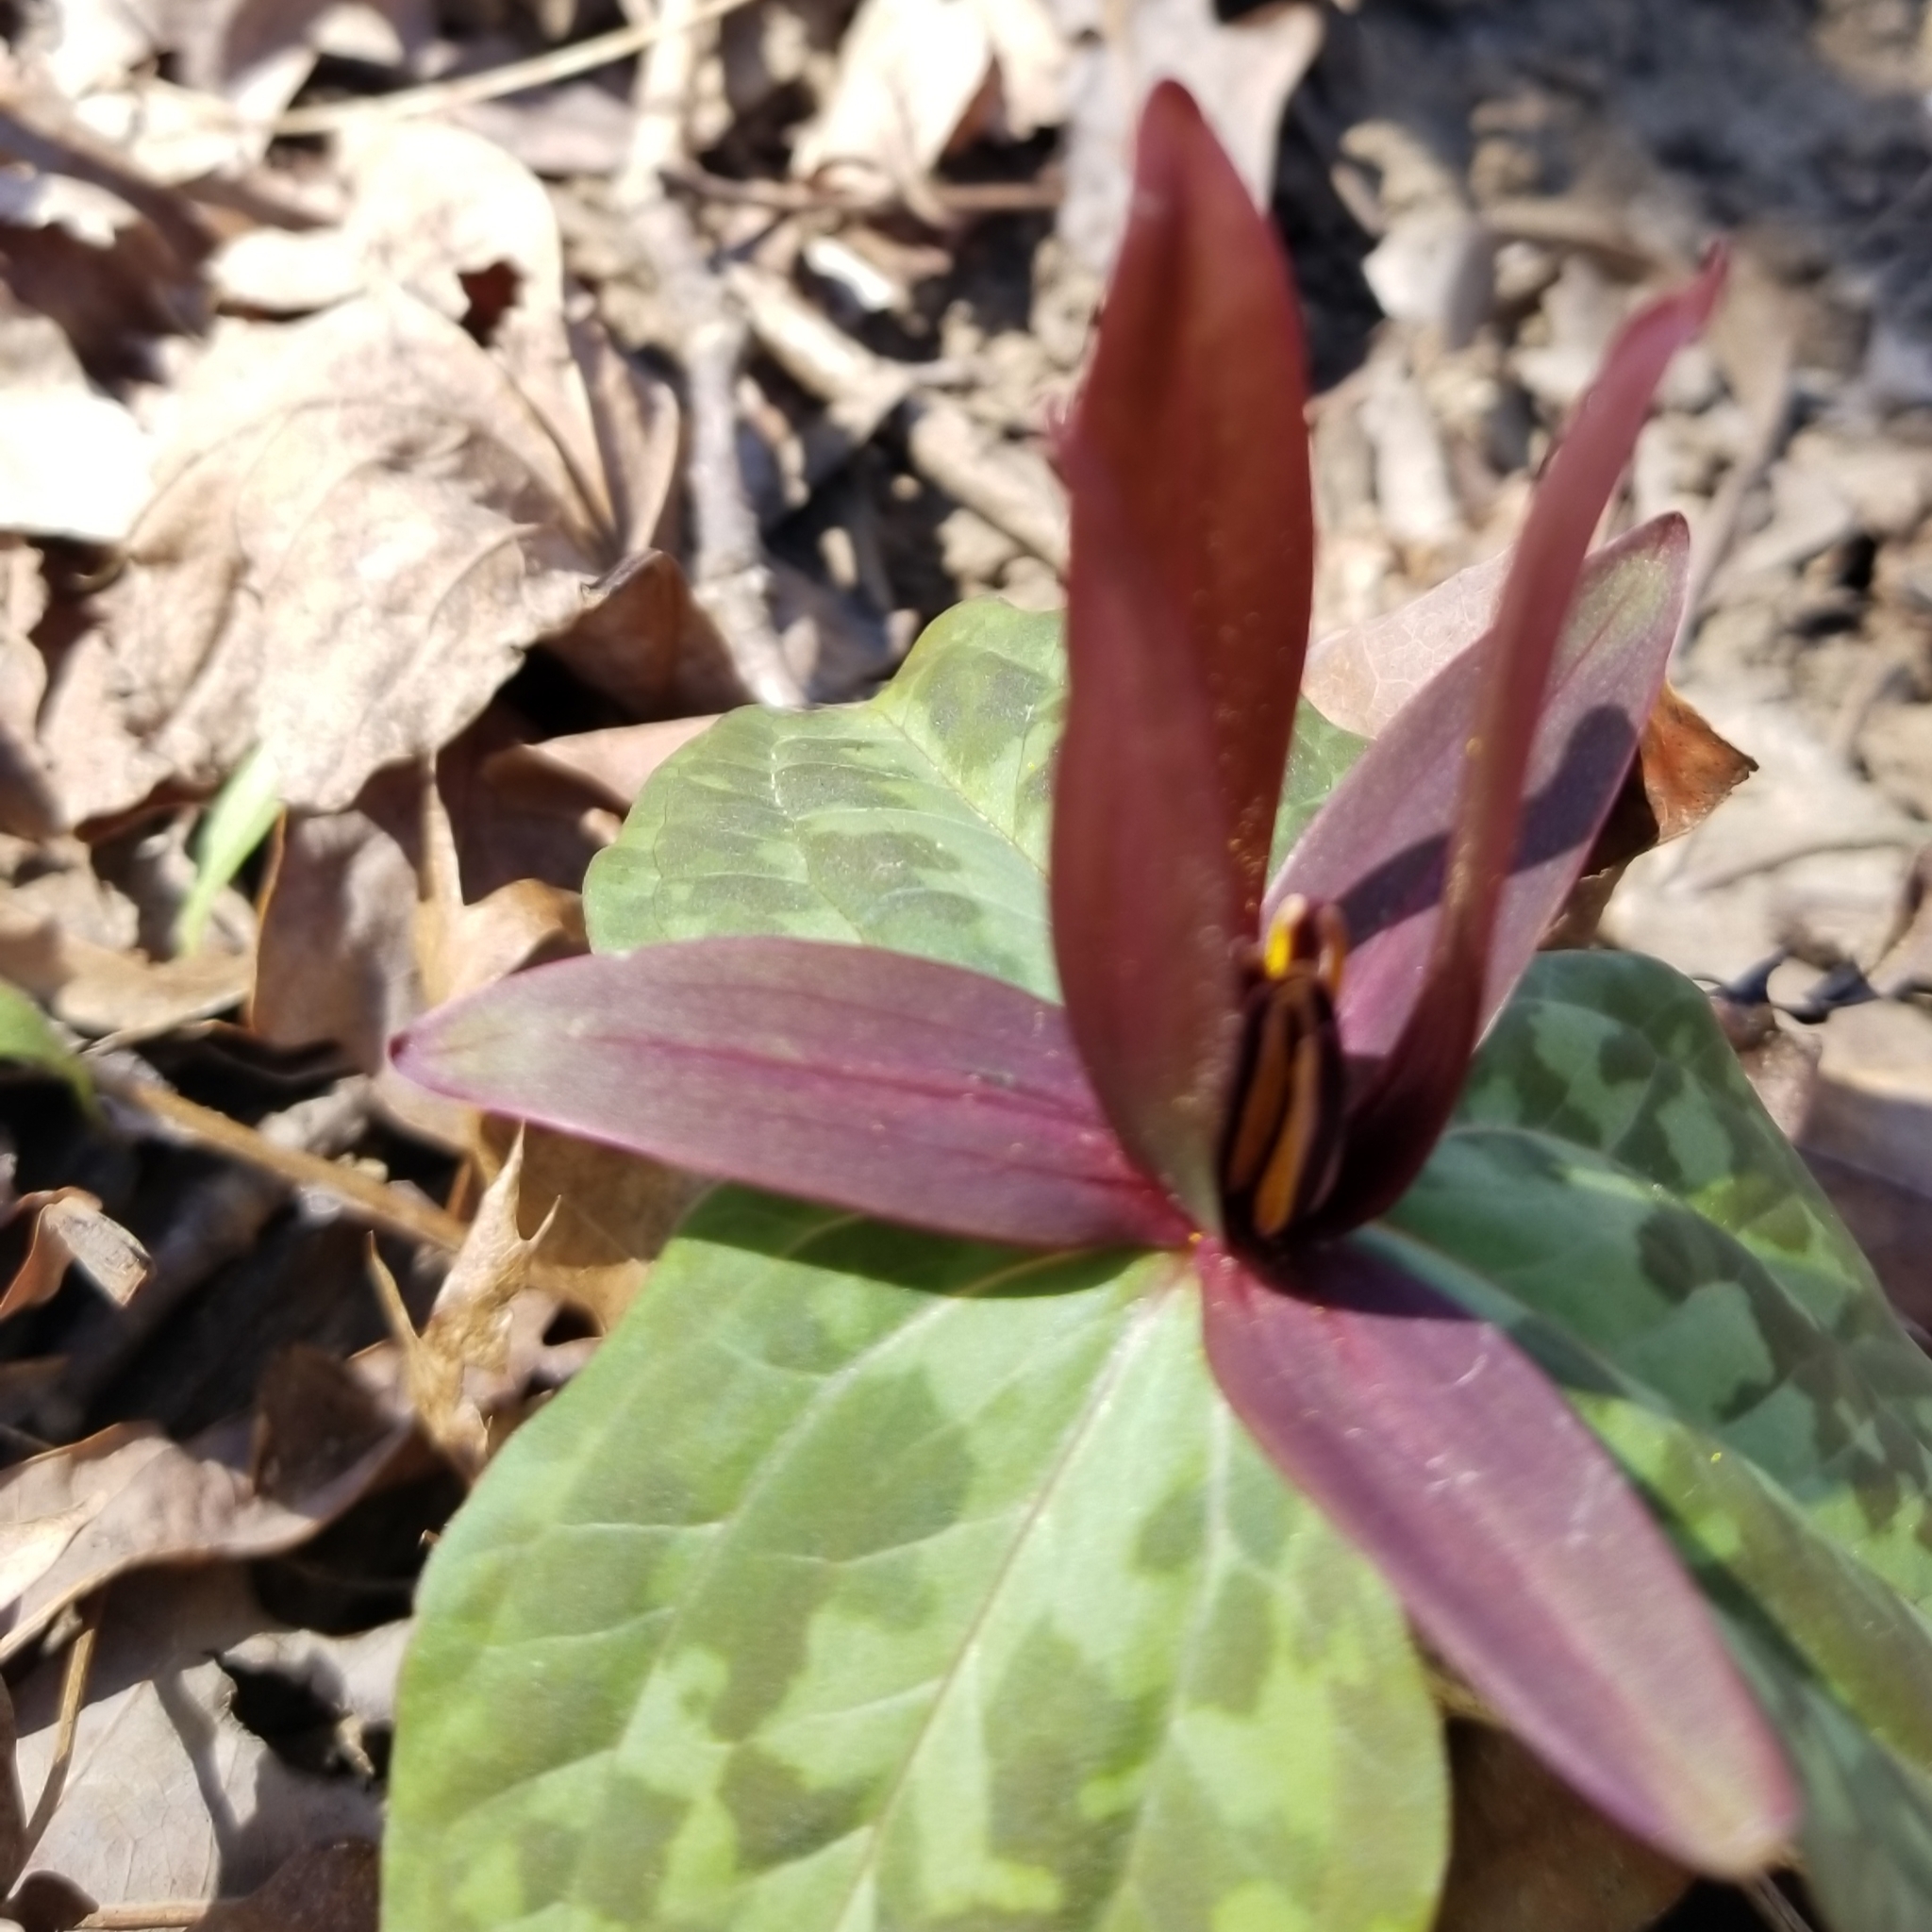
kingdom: Plantae
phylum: Tracheophyta
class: Liliopsida
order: Liliales
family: Melanthiaceae
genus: Trillium
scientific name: Trillium cuneatum
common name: Cuneate trillium
